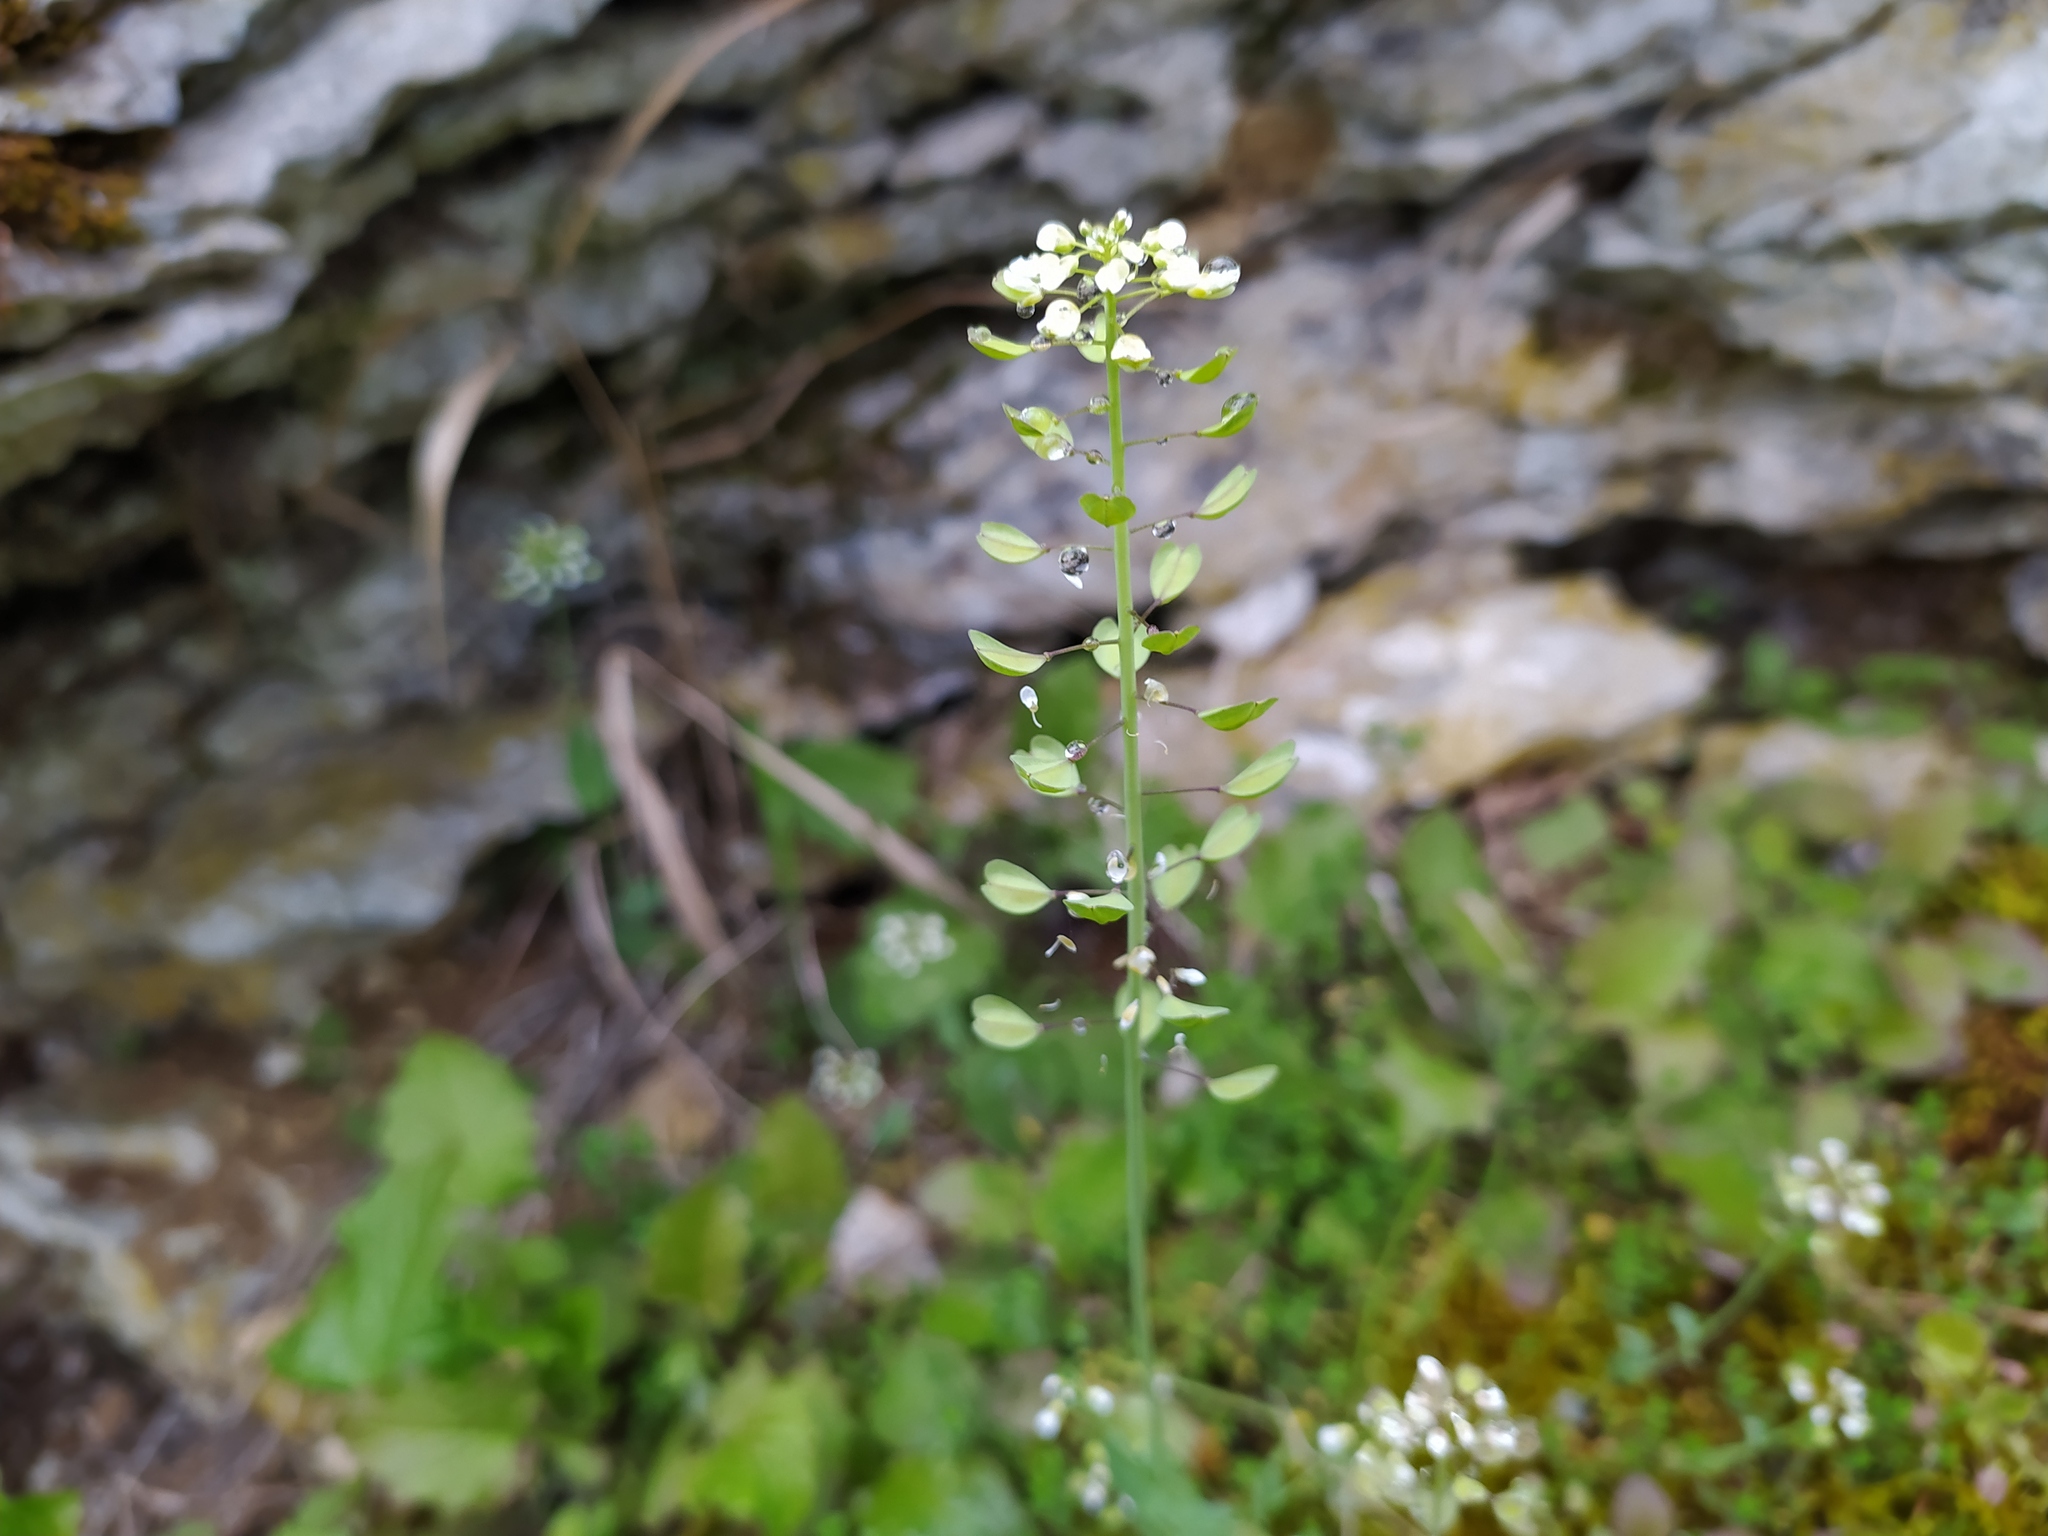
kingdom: Plantae
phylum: Tracheophyta
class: Magnoliopsida
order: Brassicales
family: Brassicaceae
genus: Noccaea
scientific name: Noccaea perfoliata
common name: Perfoliate pennycress
